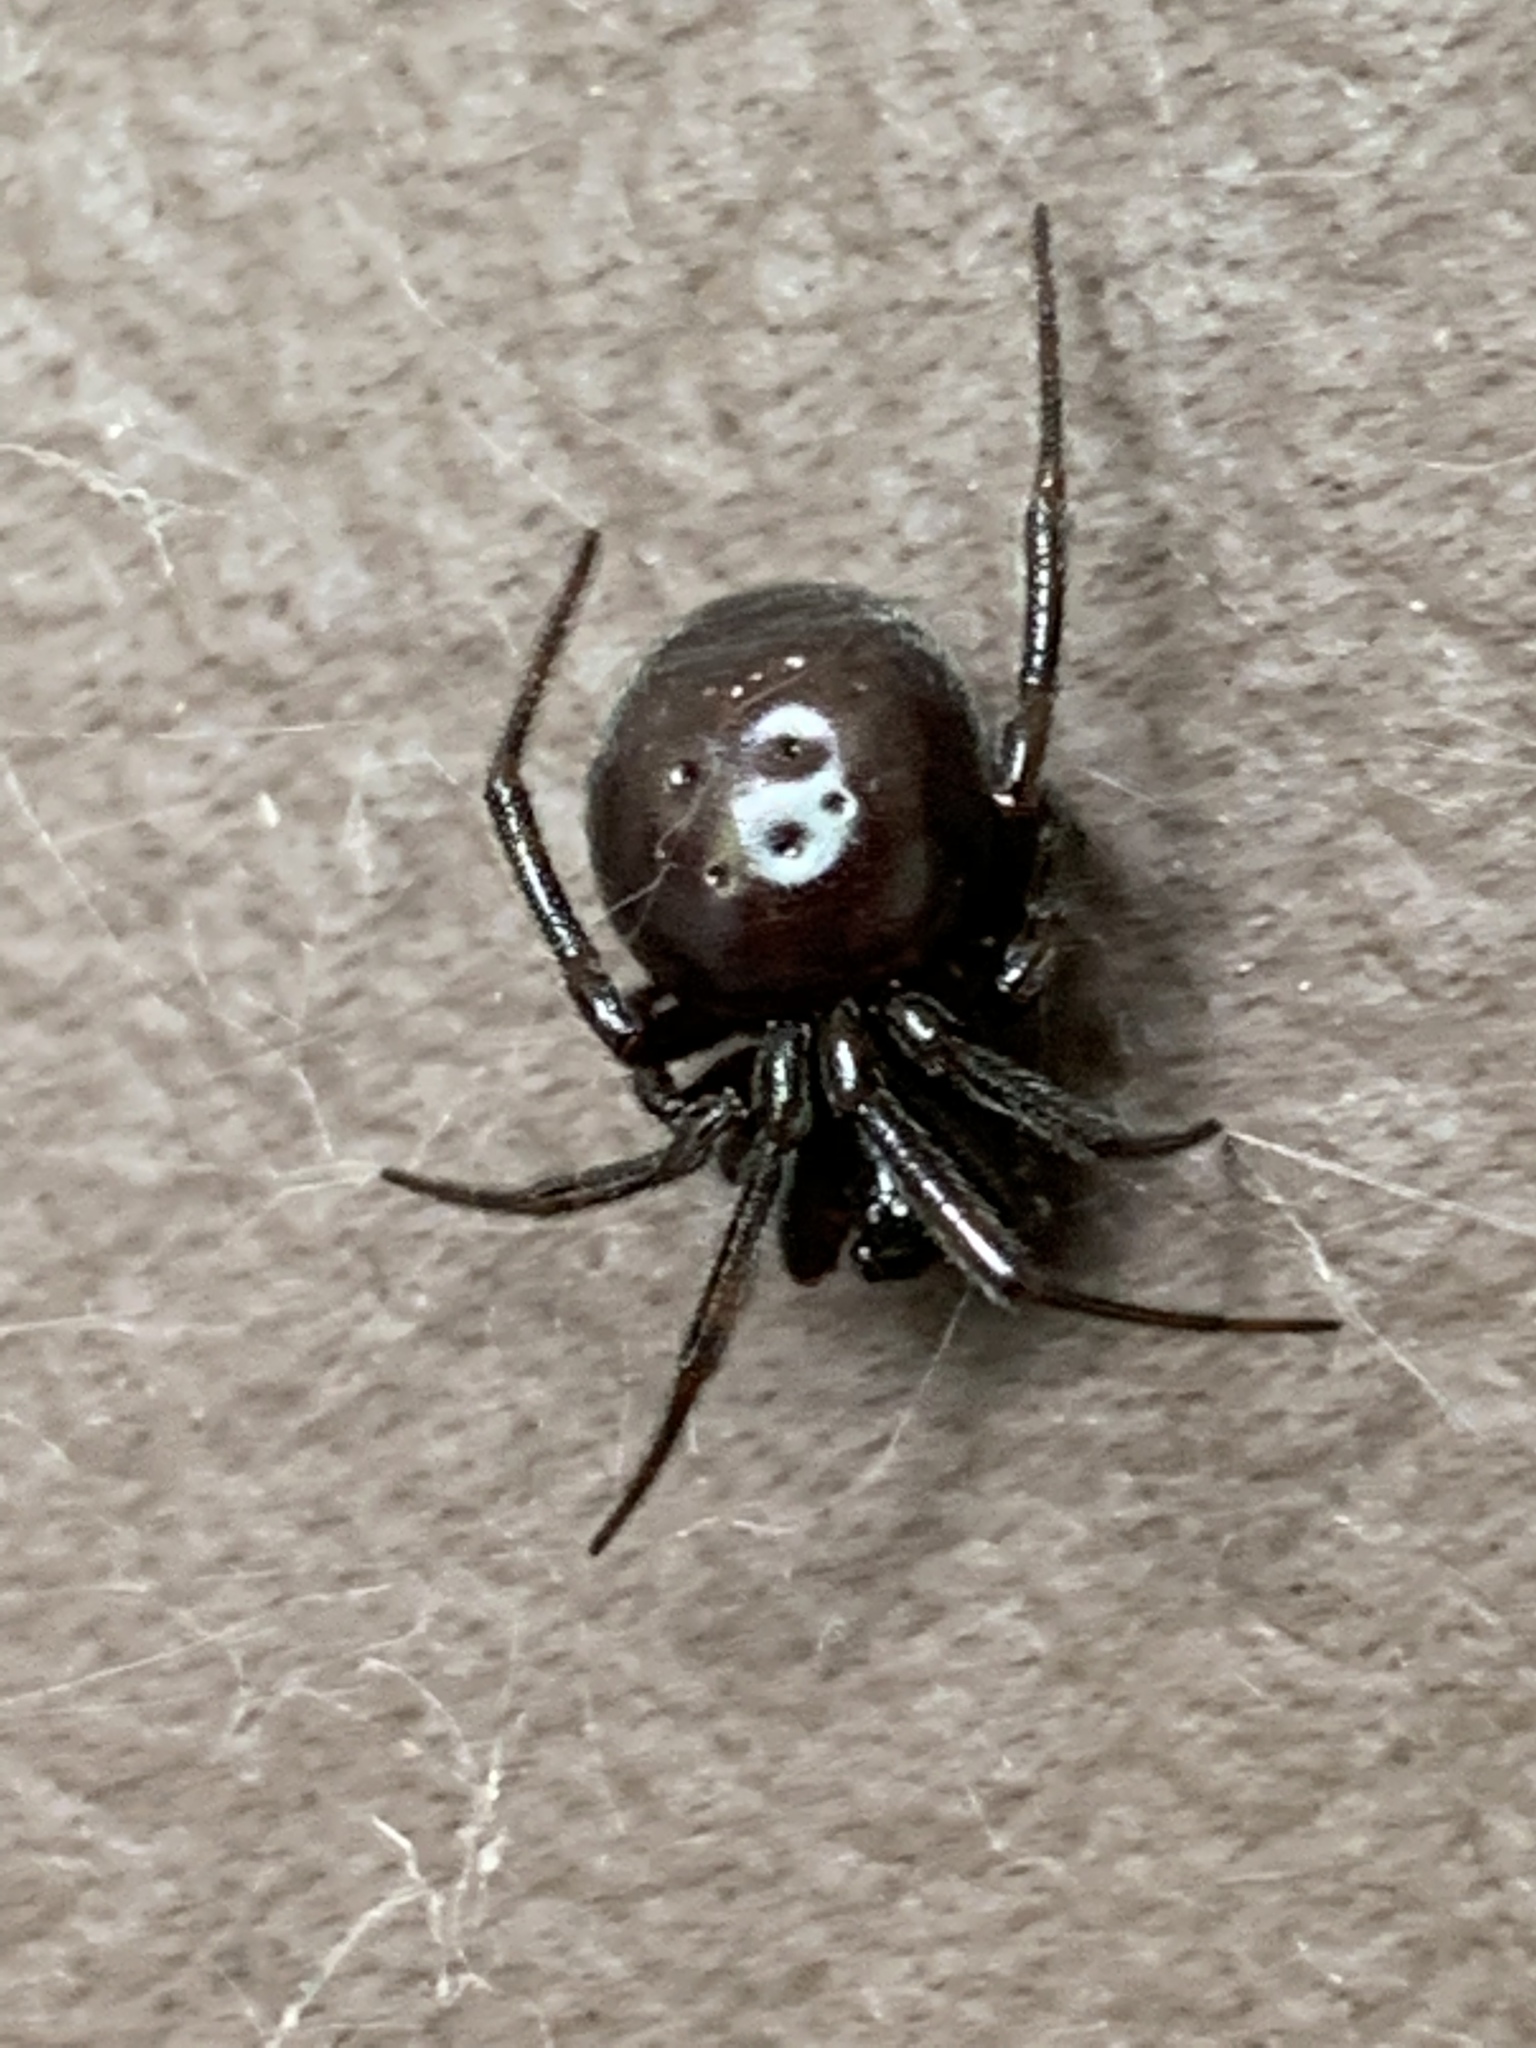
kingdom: Animalia
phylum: Arthropoda
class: Arachnida
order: Araneae
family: Theridiidae
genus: Steatoda
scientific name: Steatoda grossa
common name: False black widow
